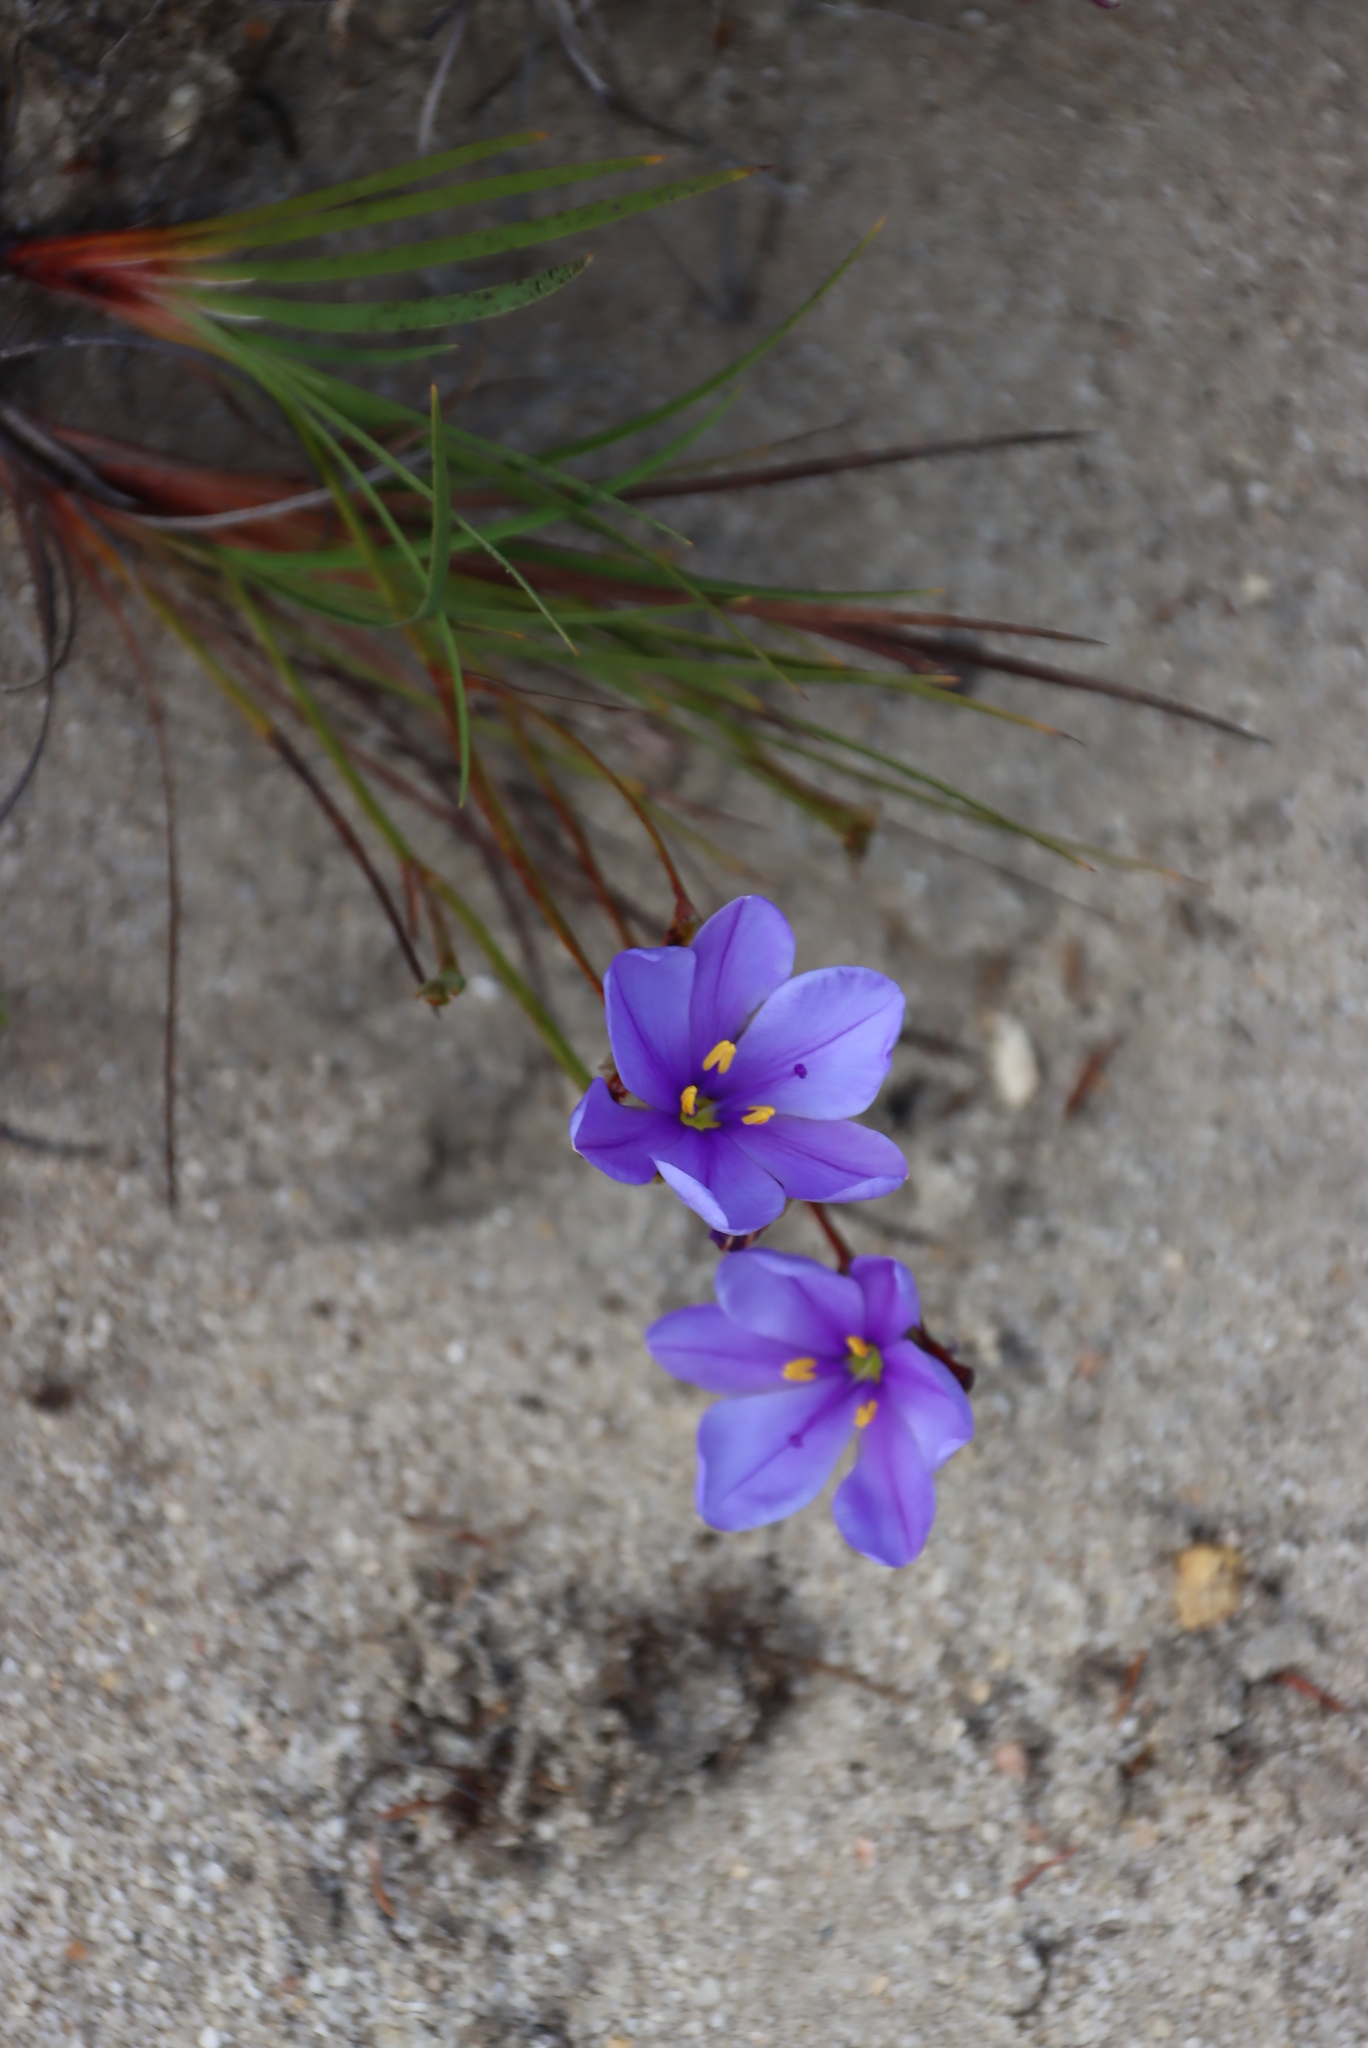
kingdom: Plantae
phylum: Tracheophyta
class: Liliopsida
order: Asparagales
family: Iridaceae
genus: Aristea
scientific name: Aristea dichotoma
